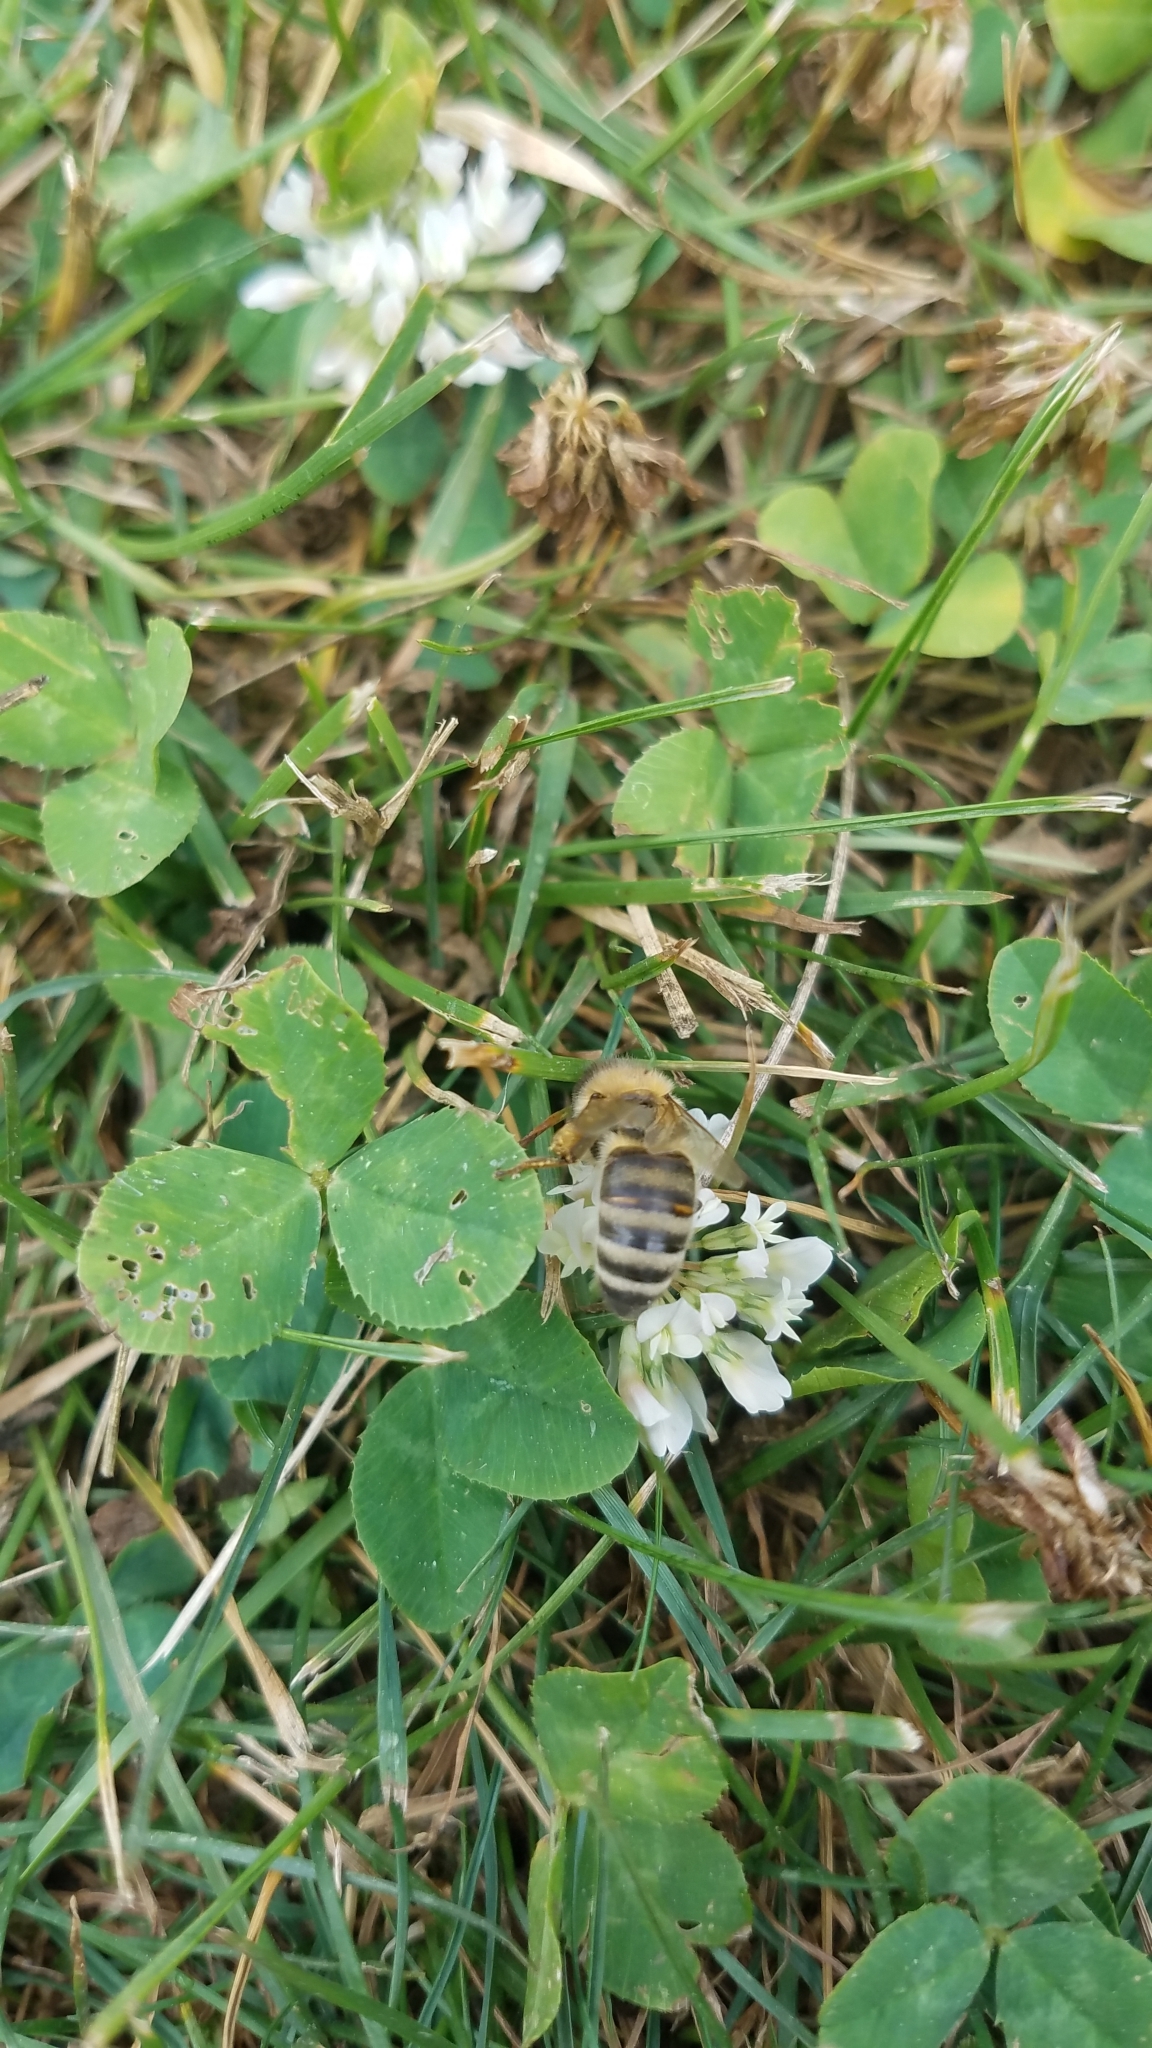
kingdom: Animalia
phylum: Arthropoda
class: Insecta
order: Hymenoptera
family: Apidae
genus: Apis
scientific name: Apis mellifera
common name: Honey bee
